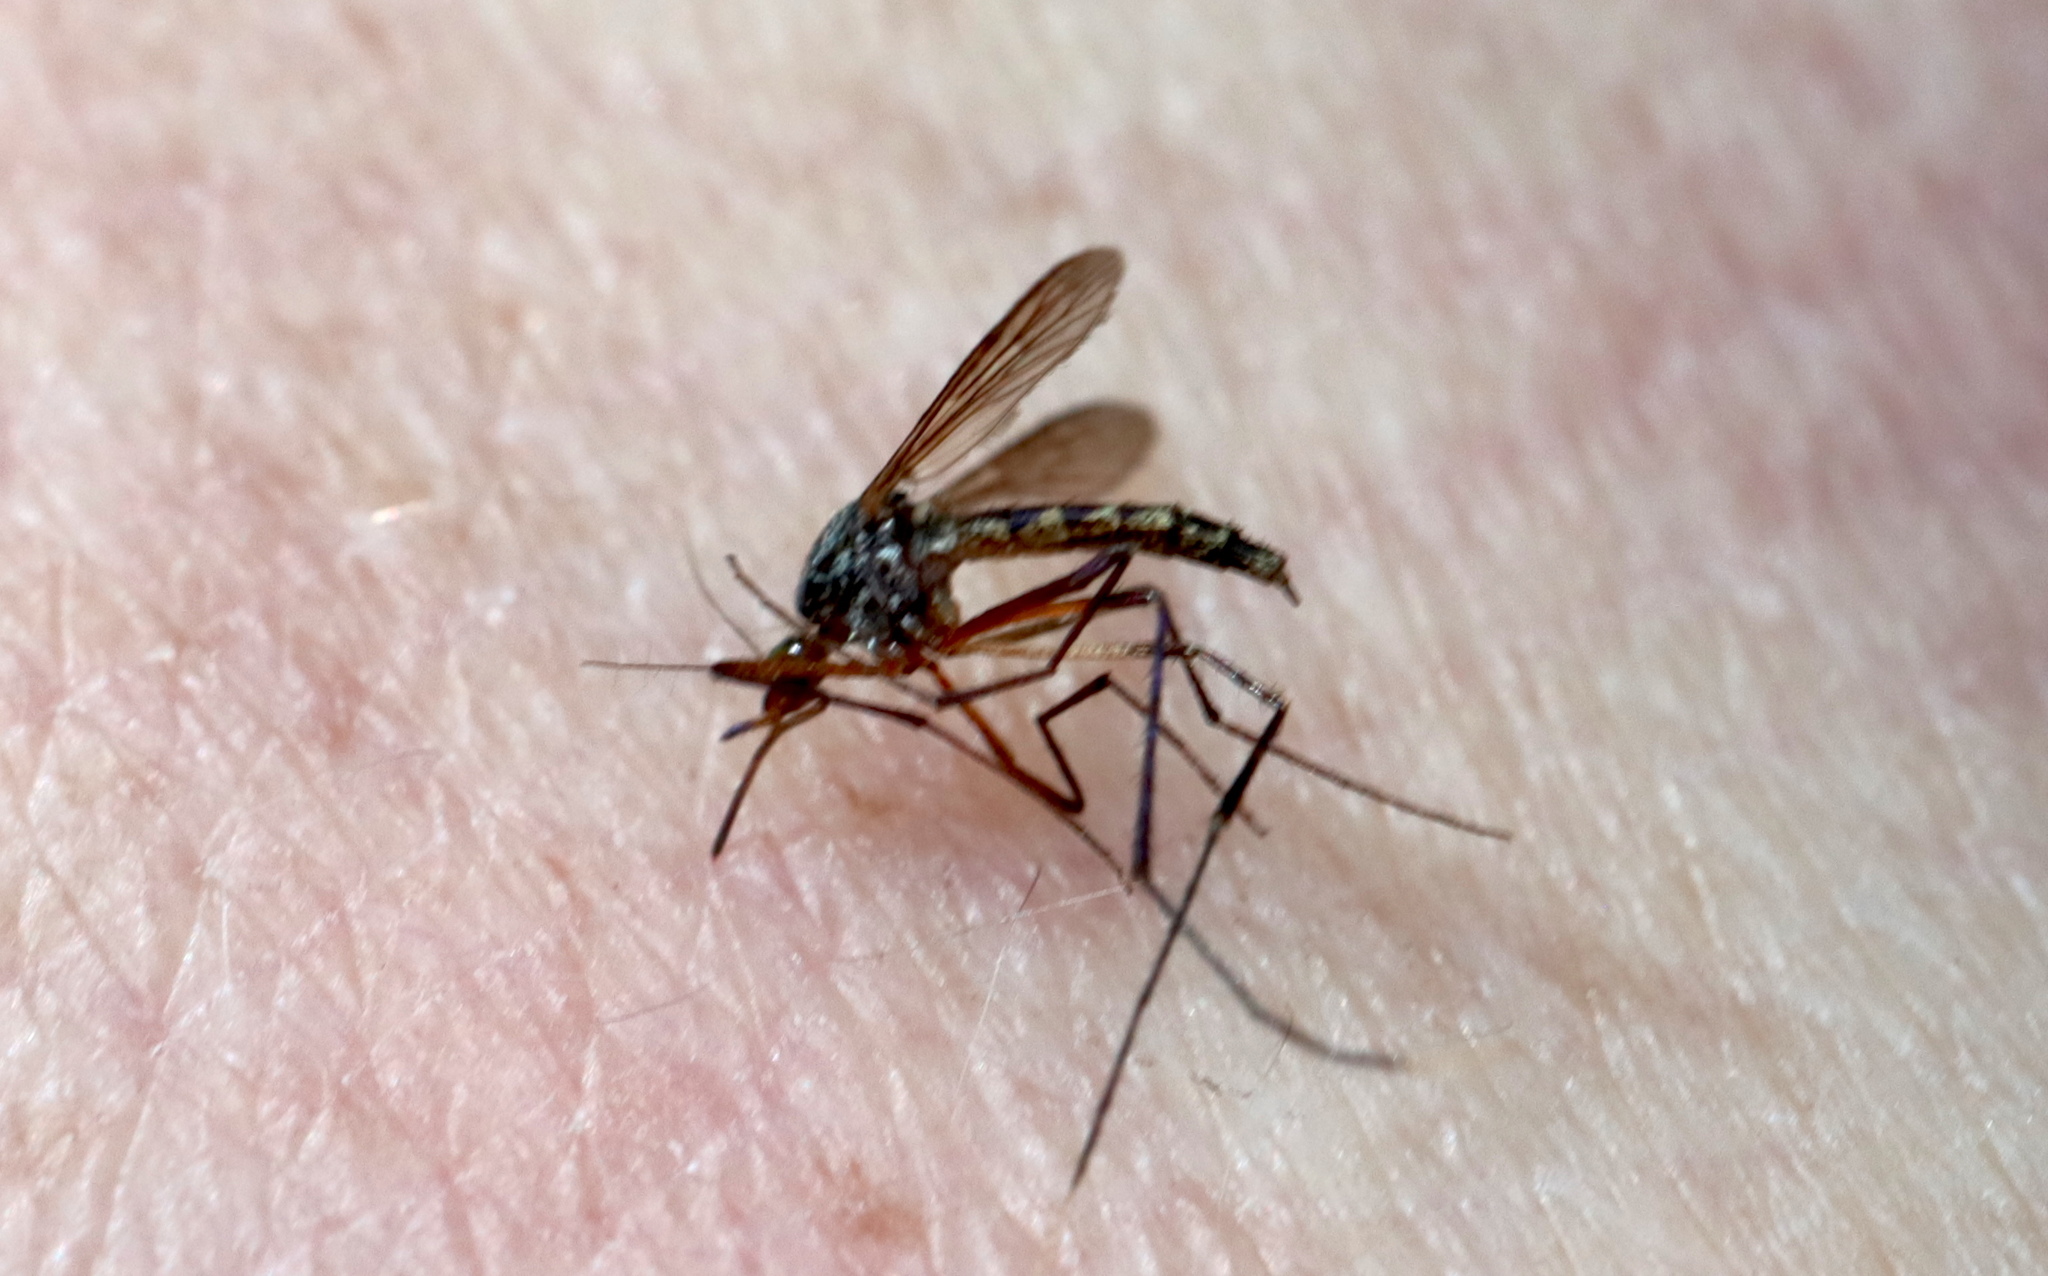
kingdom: Animalia
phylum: Arthropoda
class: Insecta
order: Diptera
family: Culicidae
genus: Psorophora
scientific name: Psorophora ferox
